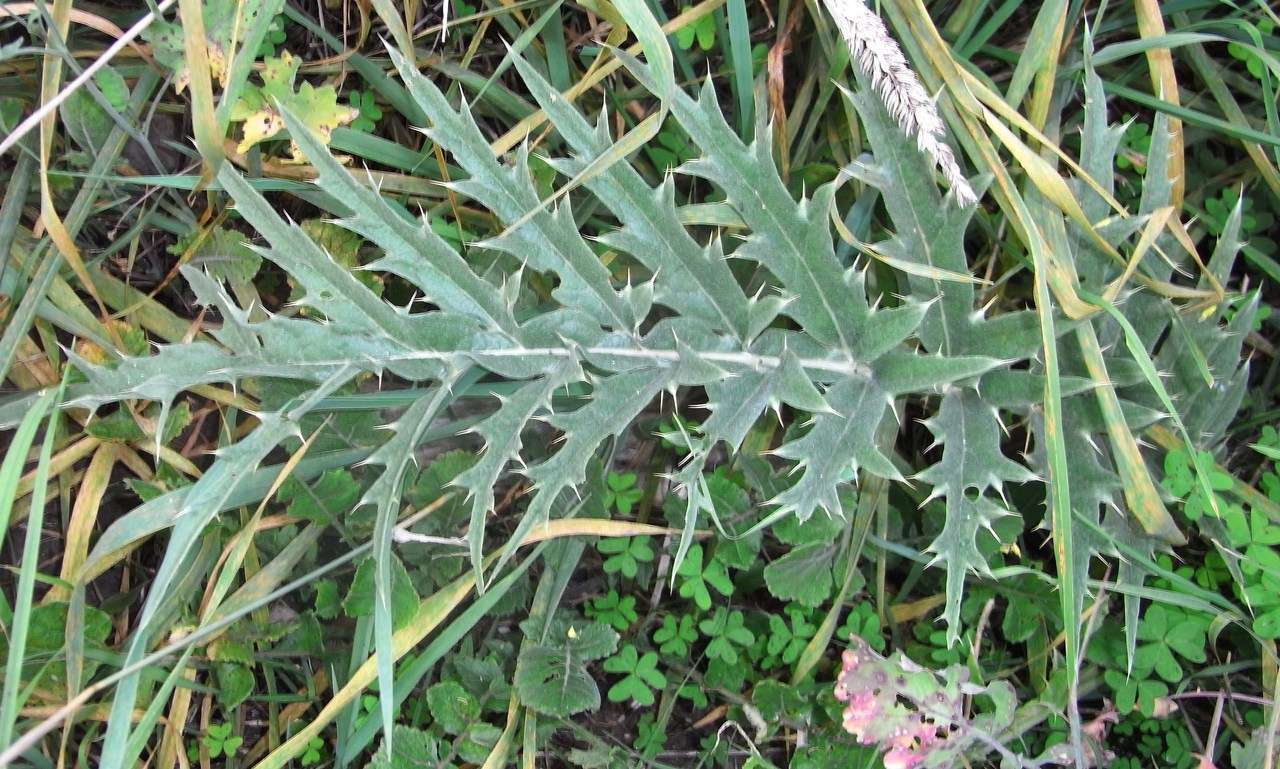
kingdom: Plantae
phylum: Tracheophyta
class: Magnoliopsida
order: Asterales
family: Asteraceae
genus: Cynara
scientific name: Cynara cardunculus
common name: Globe artichoke
